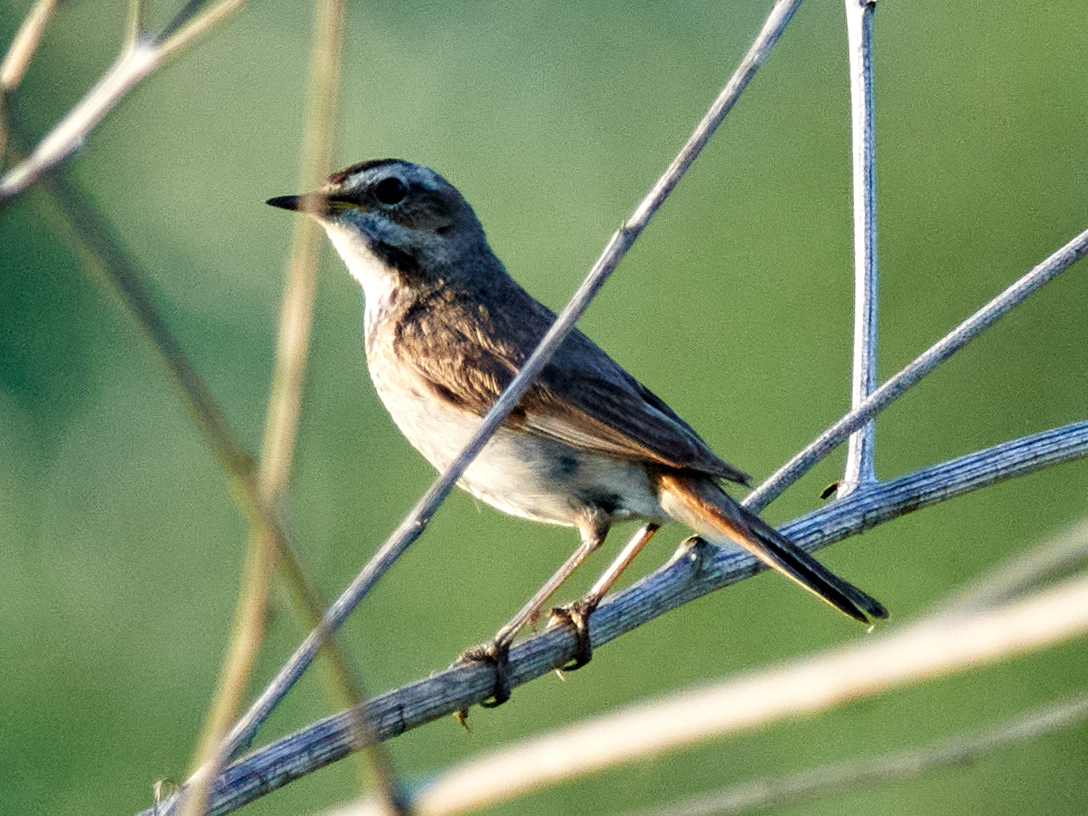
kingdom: Animalia
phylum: Chordata
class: Aves
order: Passeriformes
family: Muscicapidae
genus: Luscinia
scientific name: Luscinia svecica
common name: Bluethroat
